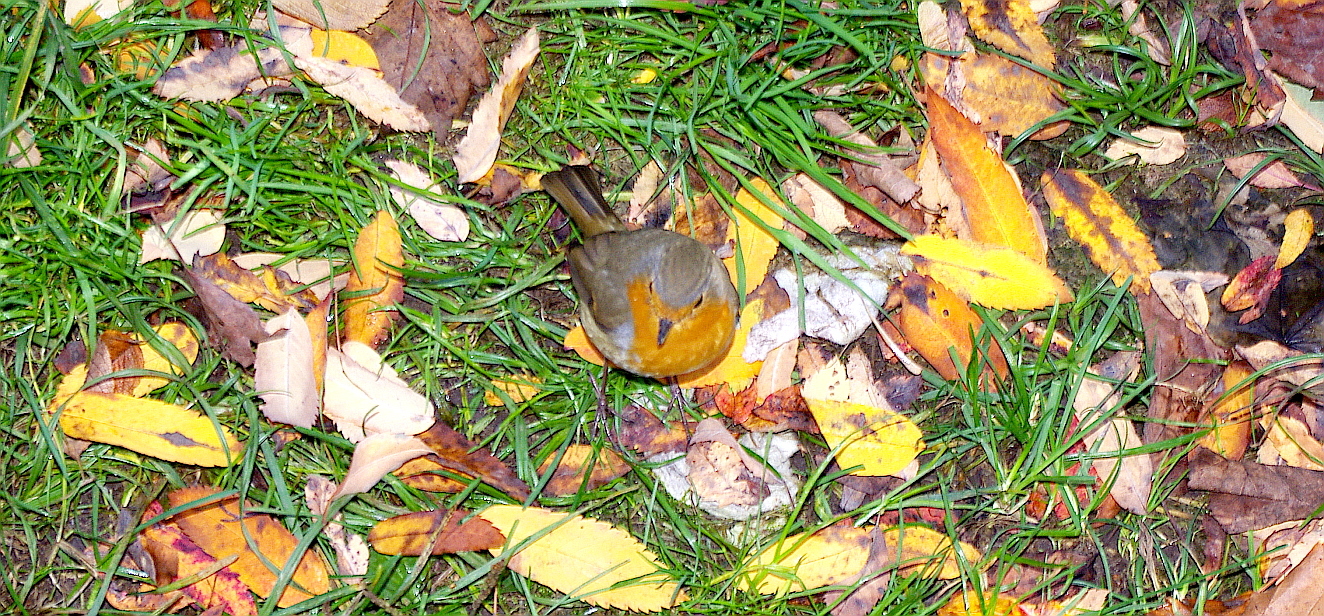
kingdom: Animalia
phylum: Chordata
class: Aves
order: Passeriformes
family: Muscicapidae
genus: Erithacus
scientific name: Erithacus rubecula
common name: European robin
